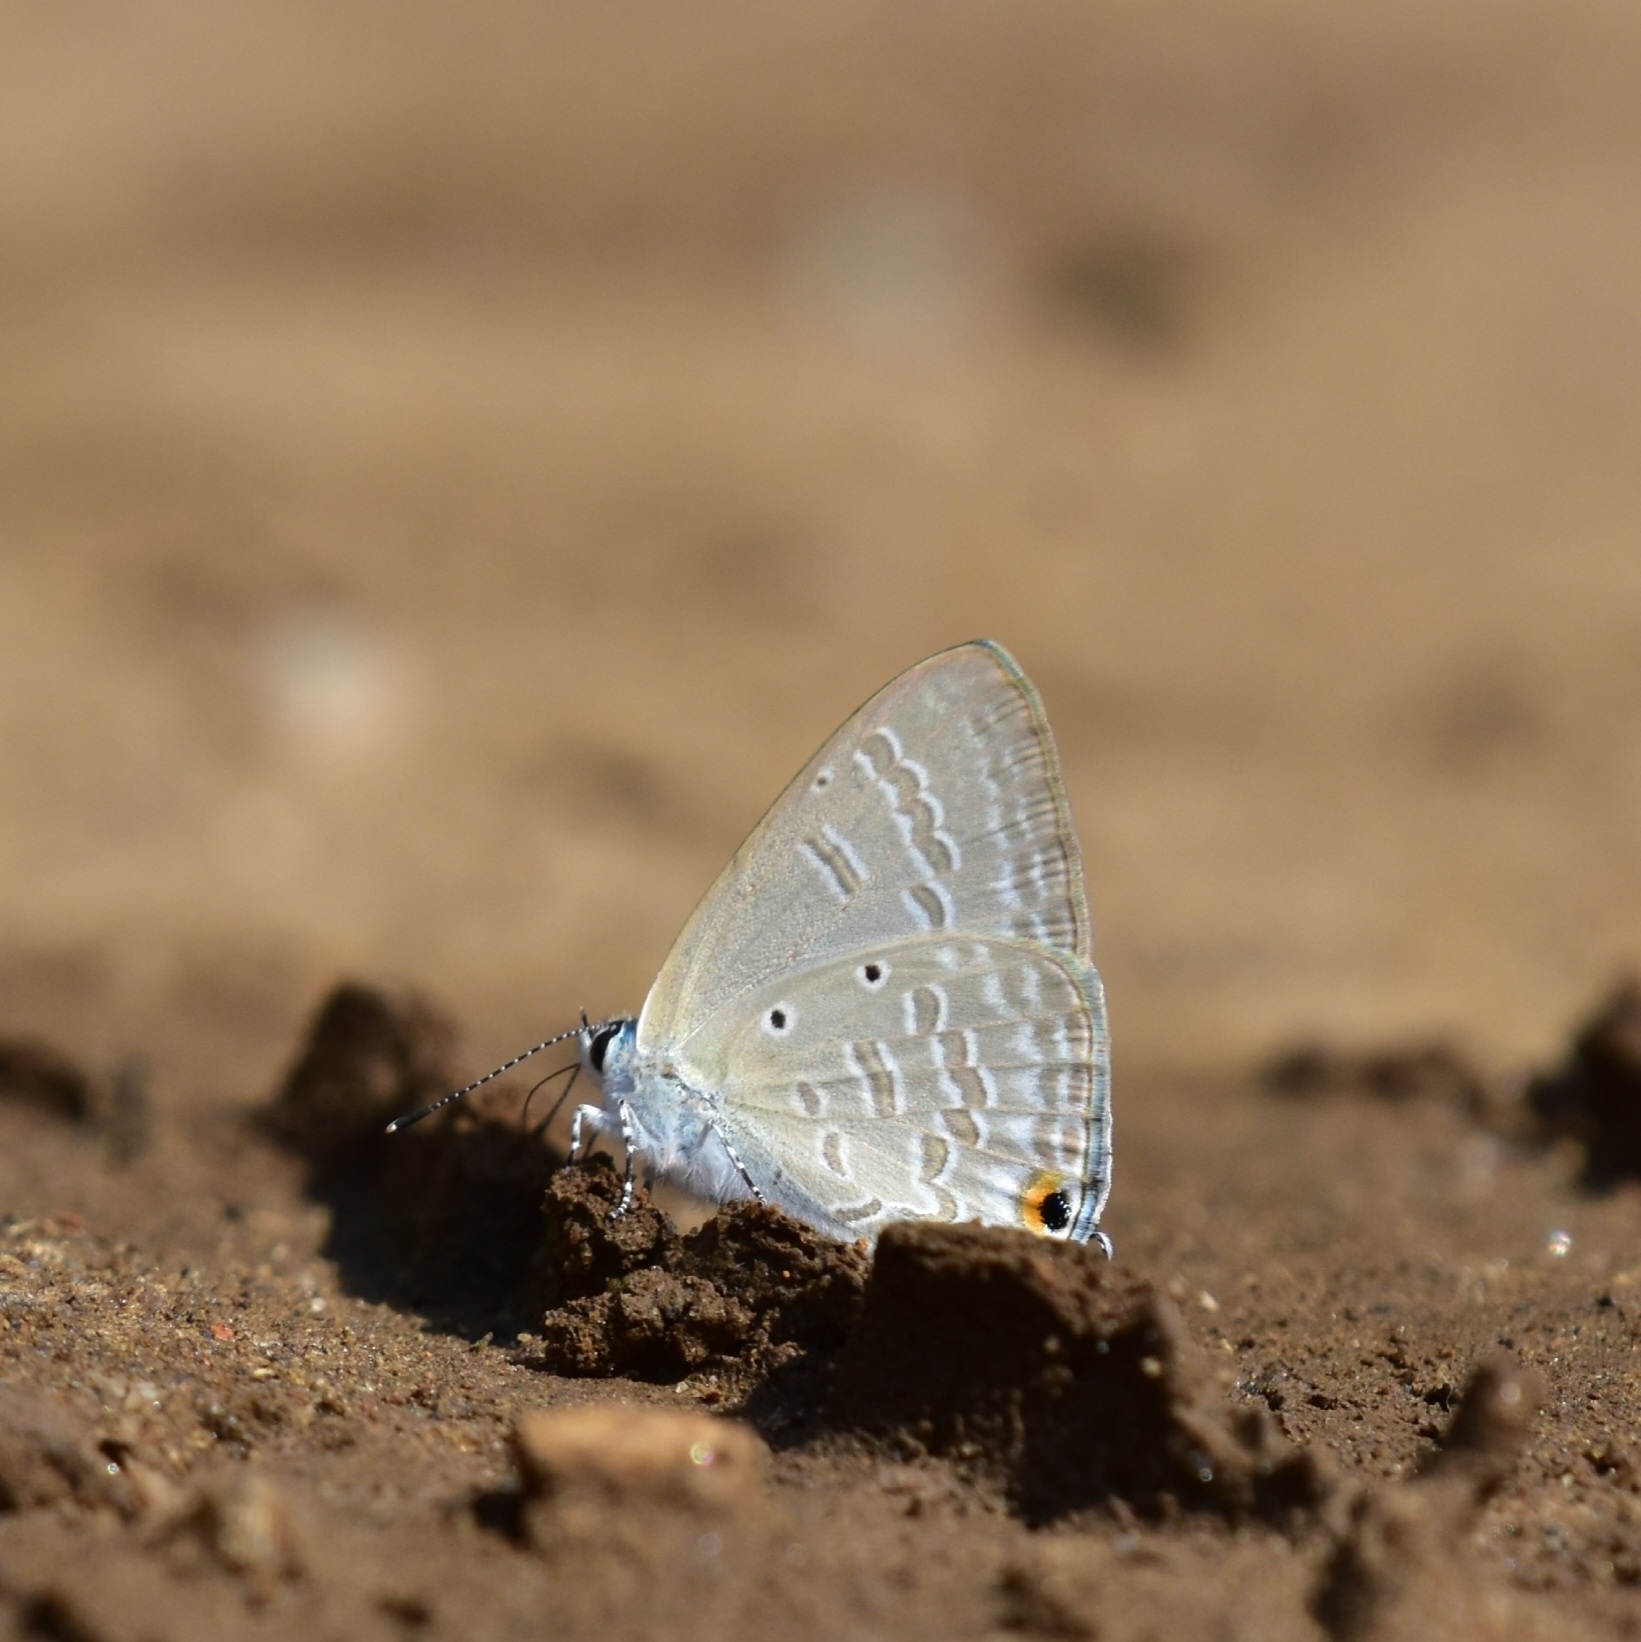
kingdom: Animalia
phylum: Arthropoda
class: Insecta
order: Lepidoptera
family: Lycaenidae
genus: Catochrysops
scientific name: Catochrysops strabo
